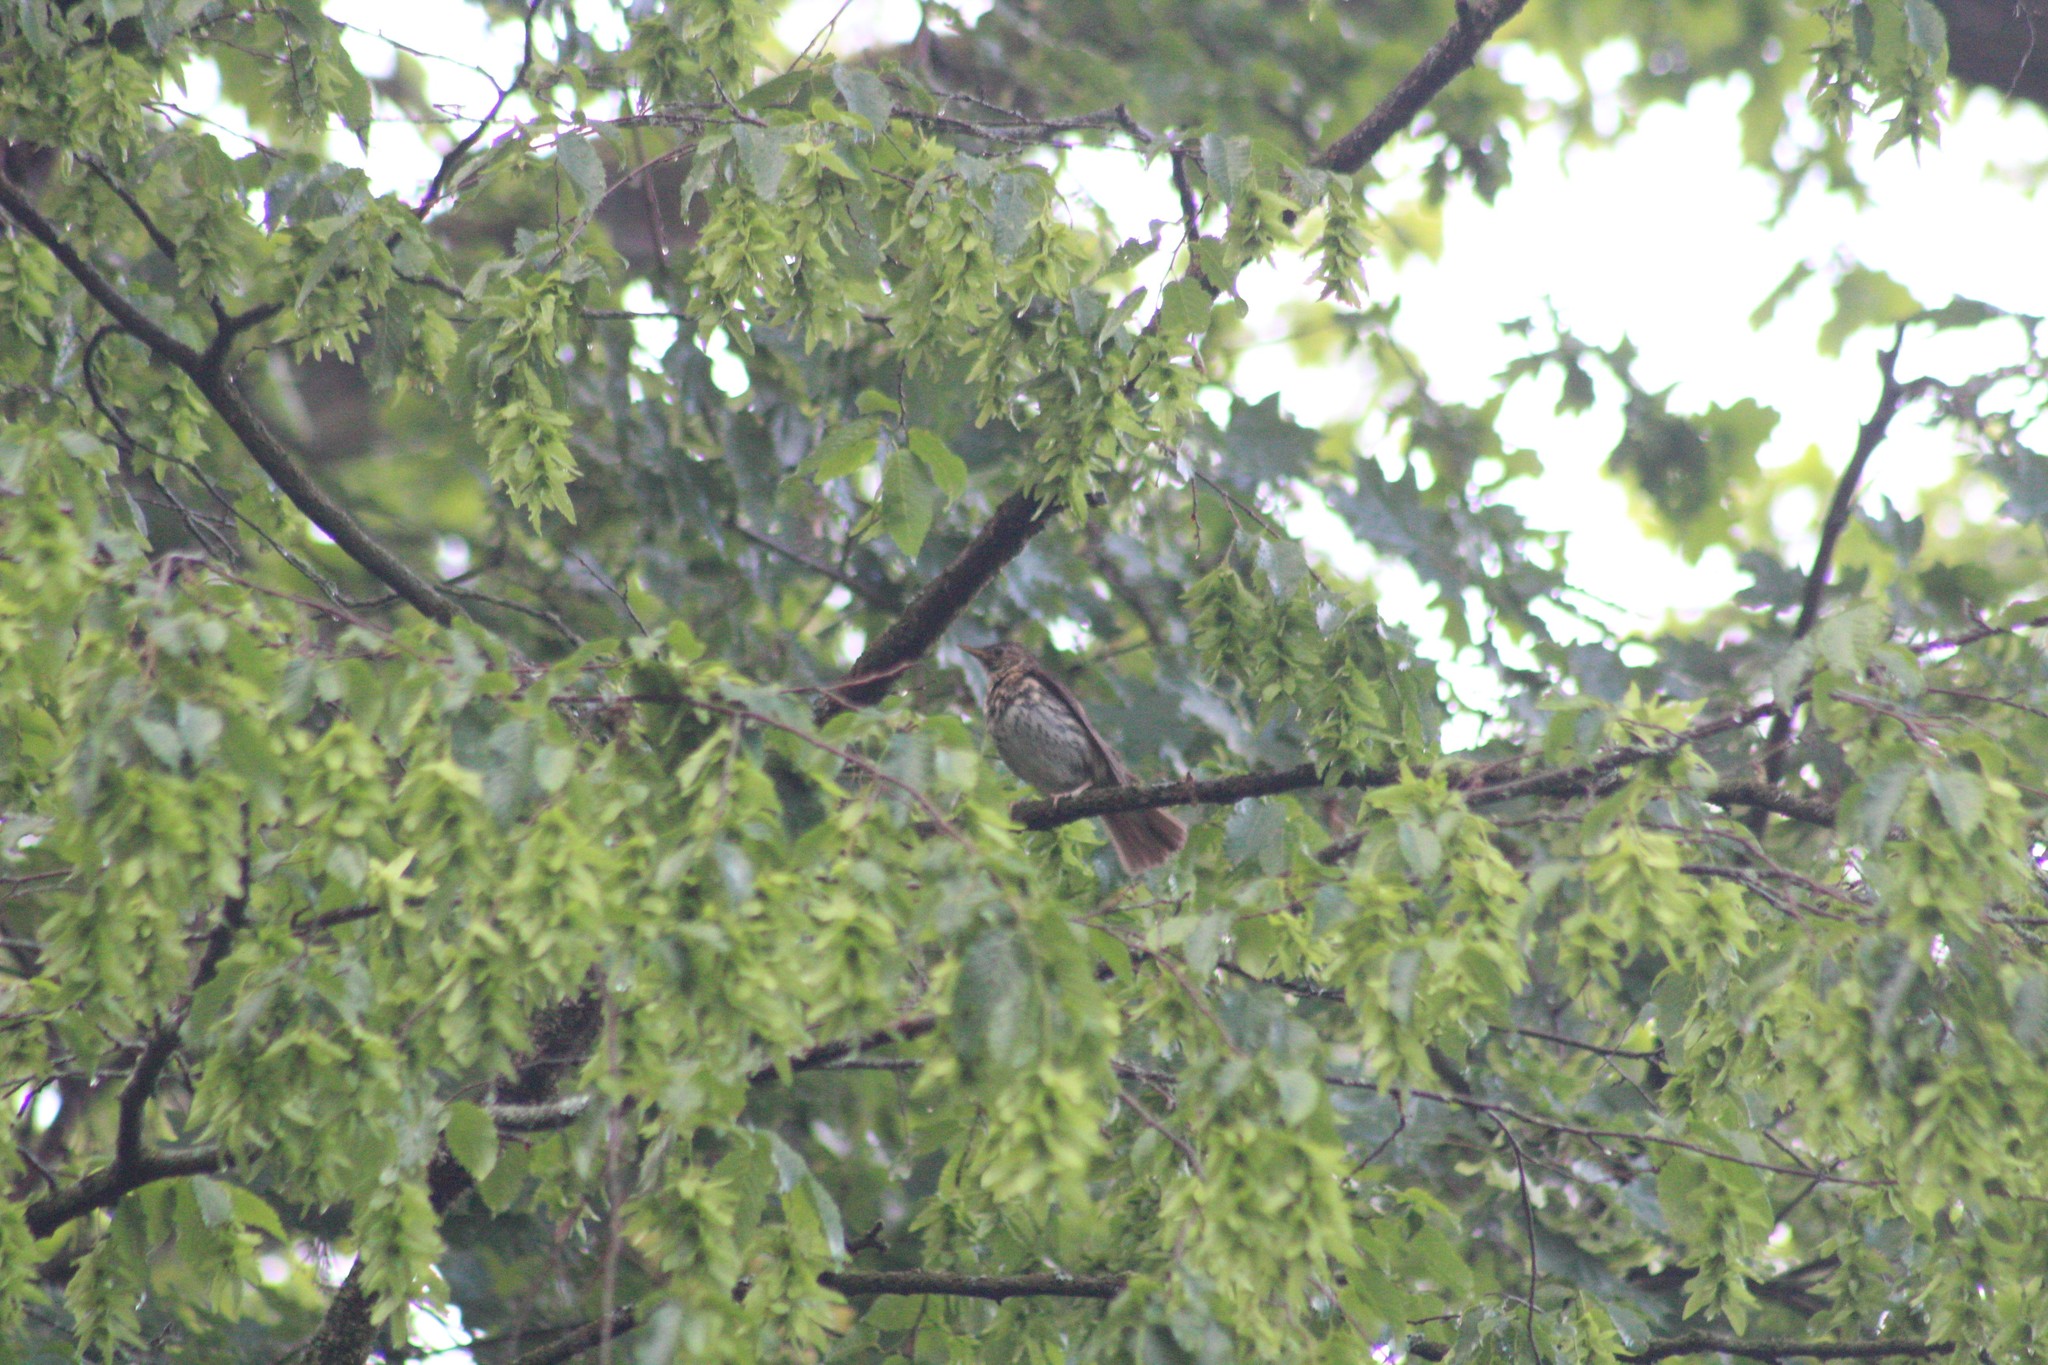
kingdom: Animalia
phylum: Chordata
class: Aves
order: Passeriformes
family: Turdidae
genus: Turdus
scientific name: Turdus philomelos
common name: Song thrush
